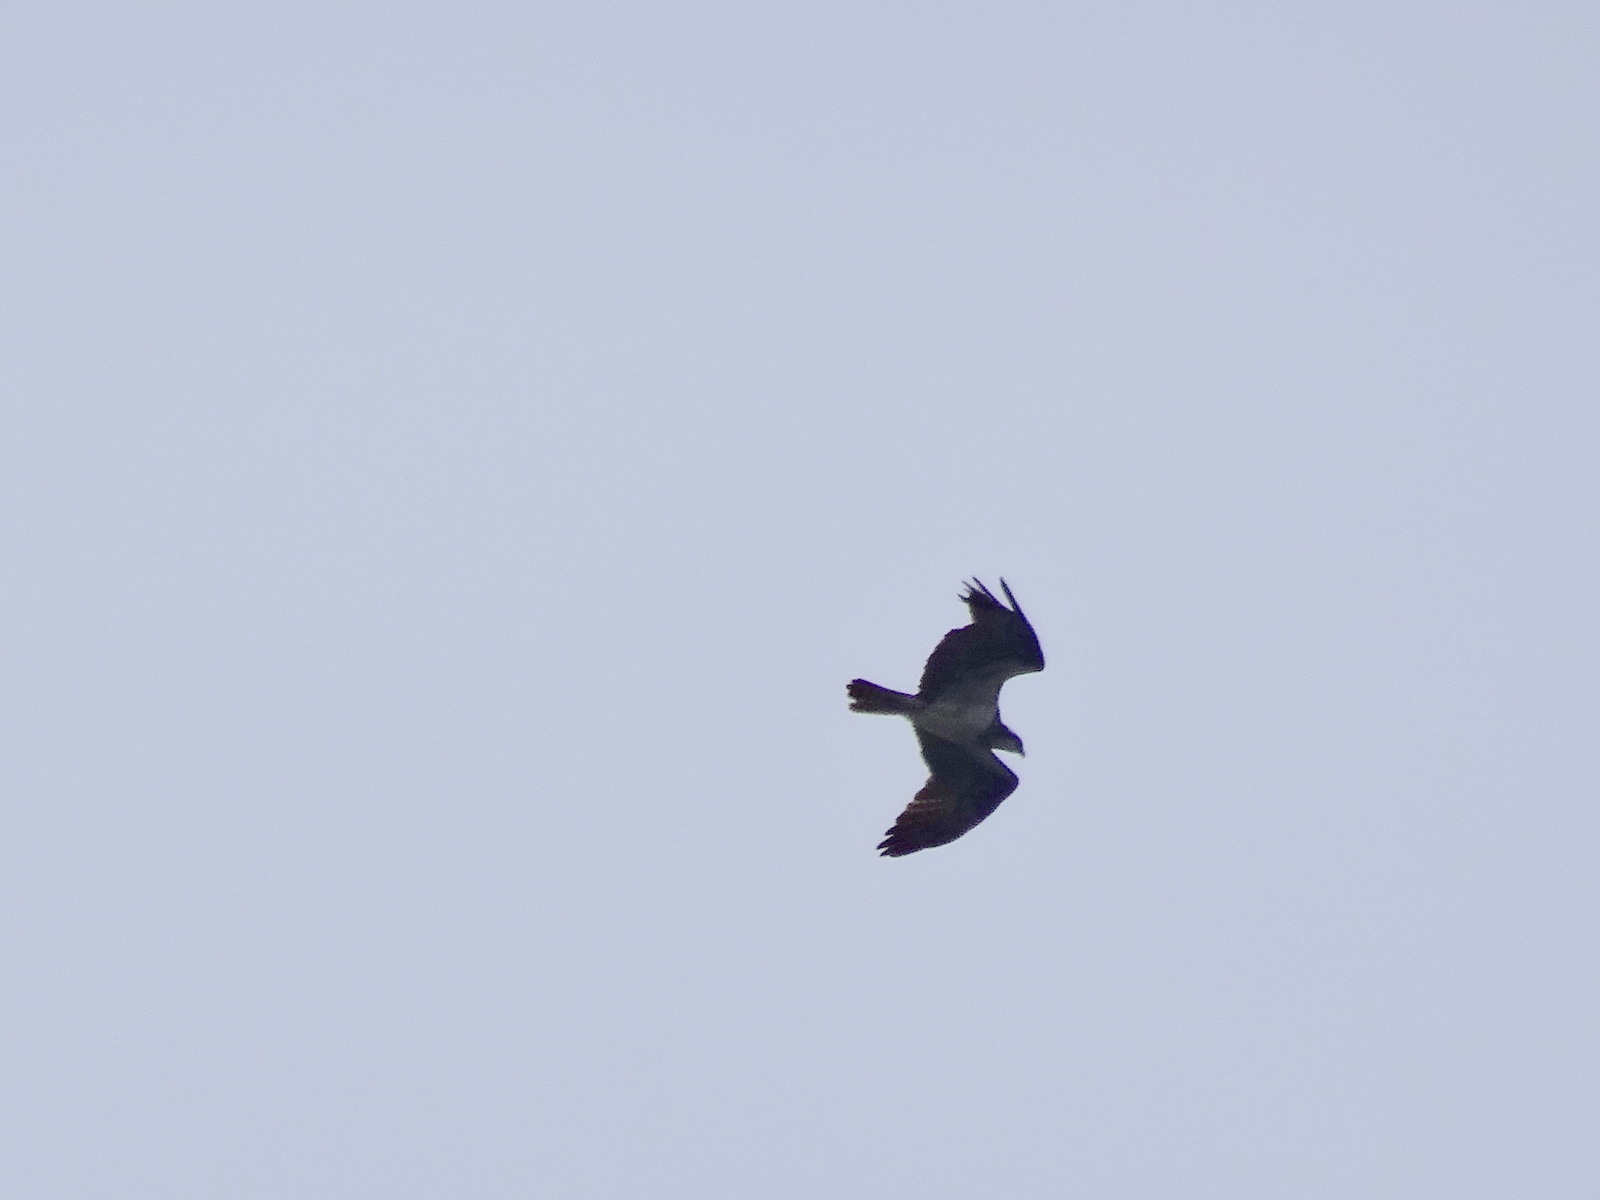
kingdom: Animalia
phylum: Chordata
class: Aves
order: Accipitriformes
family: Pandionidae
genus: Pandion
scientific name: Pandion haliaetus
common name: Osprey
